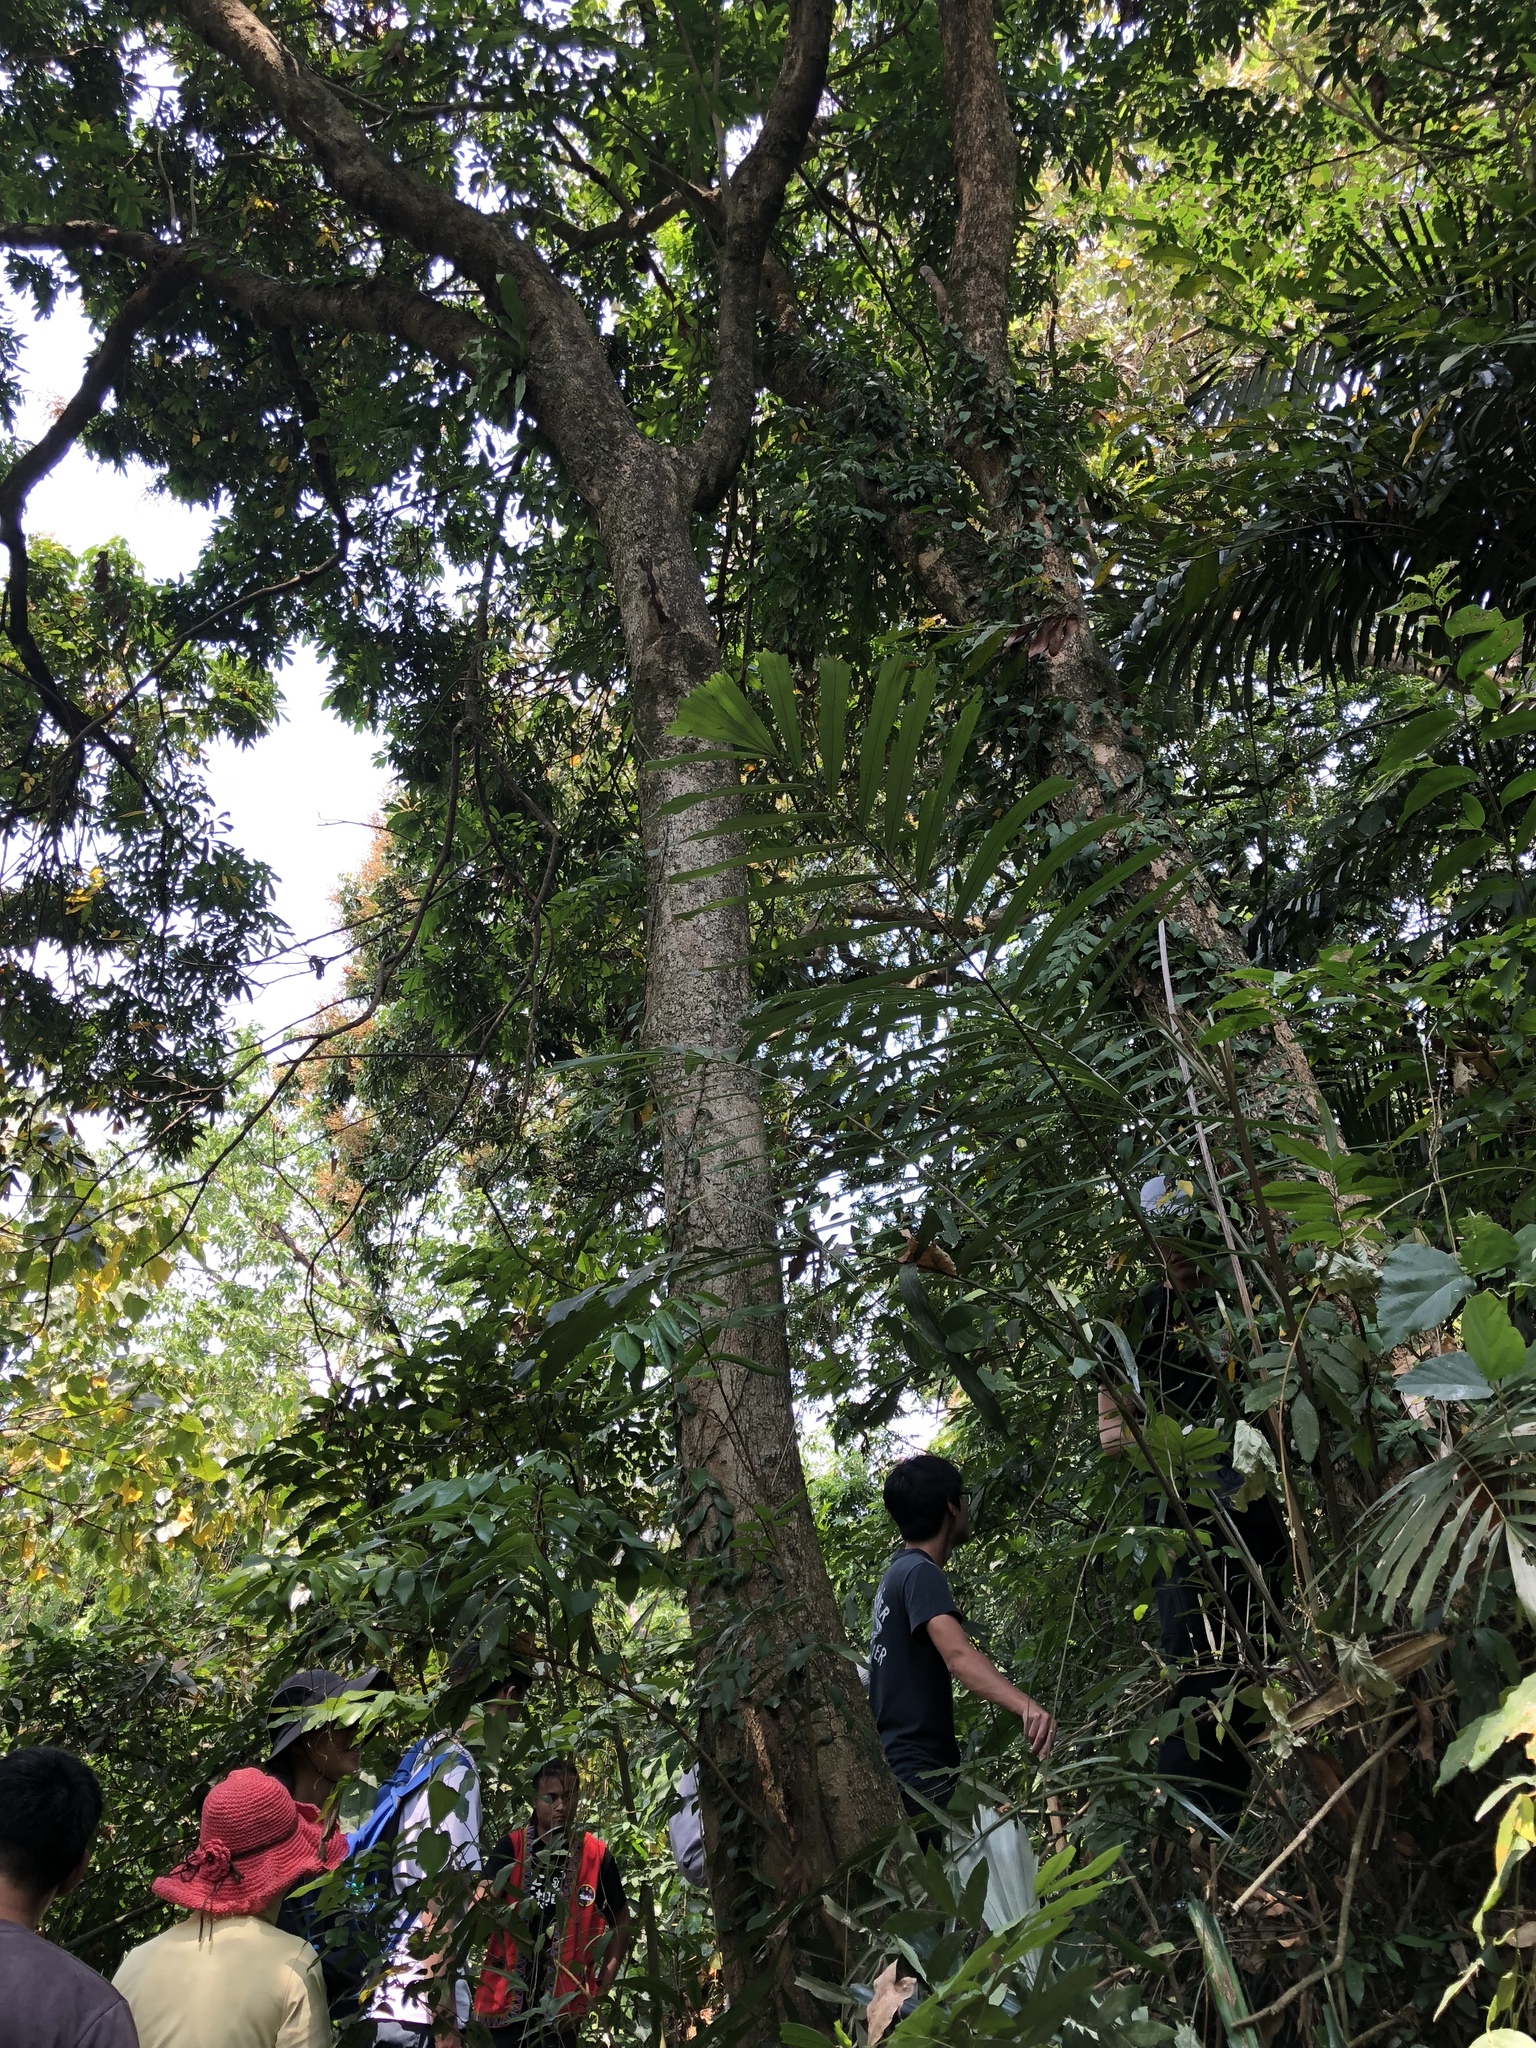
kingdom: Plantae
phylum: Tracheophyta
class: Magnoliopsida
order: Sapindales
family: Sapindaceae
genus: Dimocarpus
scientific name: Dimocarpus longan
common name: Longan
